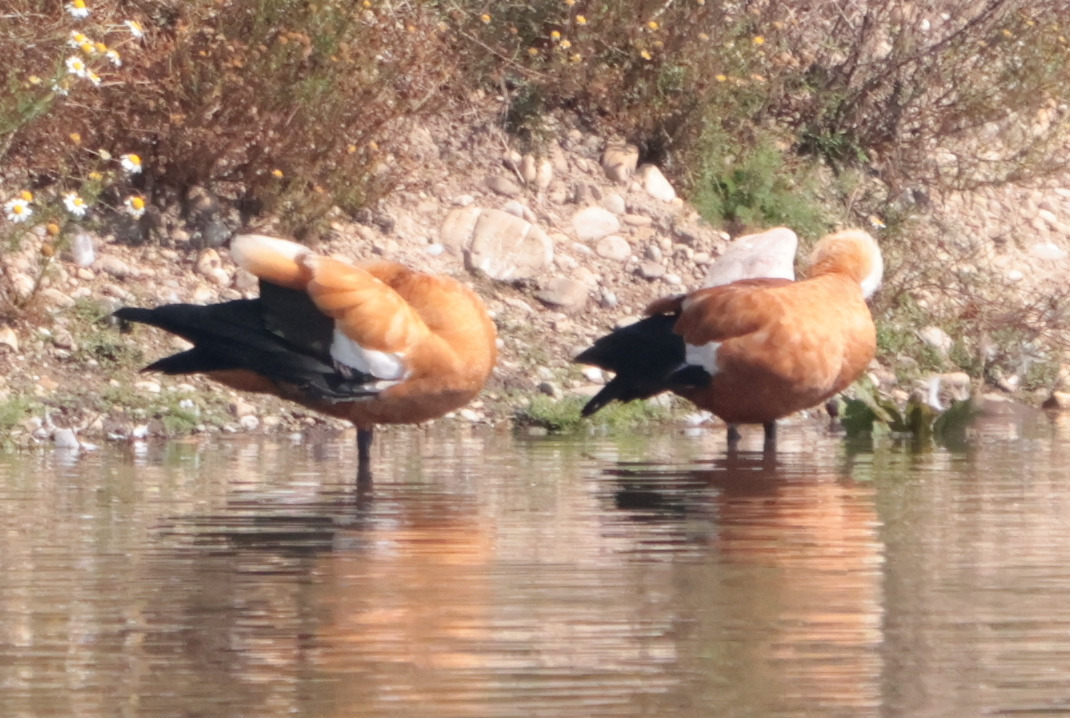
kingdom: Animalia
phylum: Chordata
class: Aves
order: Anseriformes
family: Anatidae
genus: Tadorna
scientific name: Tadorna ferruginea
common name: Ruddy shelduck
